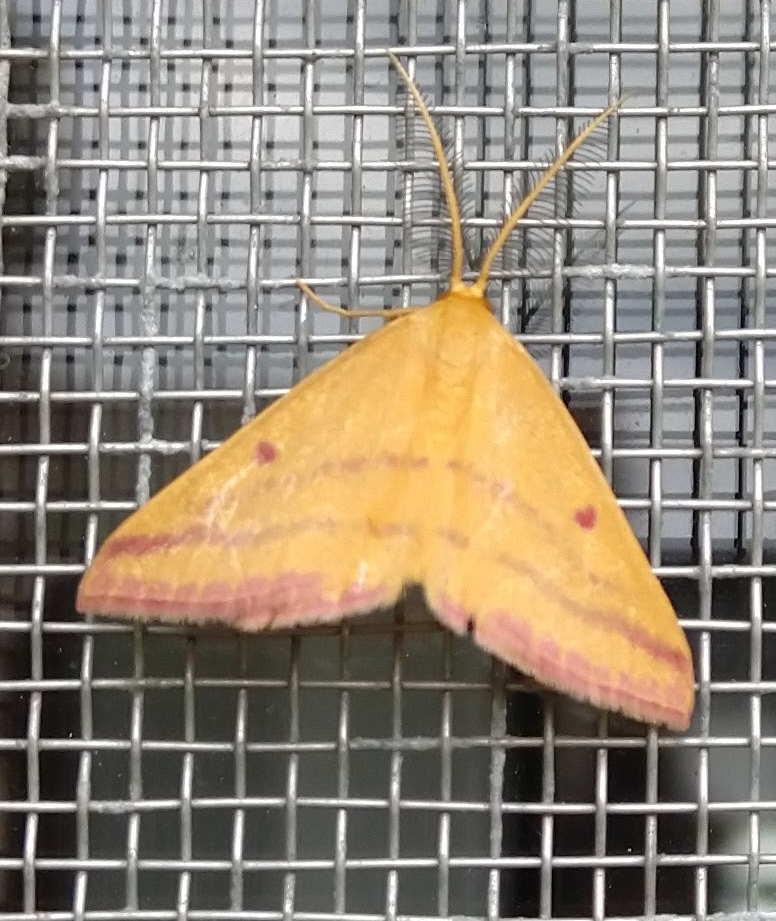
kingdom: Animalia
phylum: Arthropoda
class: Insecta
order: Lepidoptera
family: Geometridae
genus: Haematopis
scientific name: Haematopis grataria
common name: Chickweed geometer
